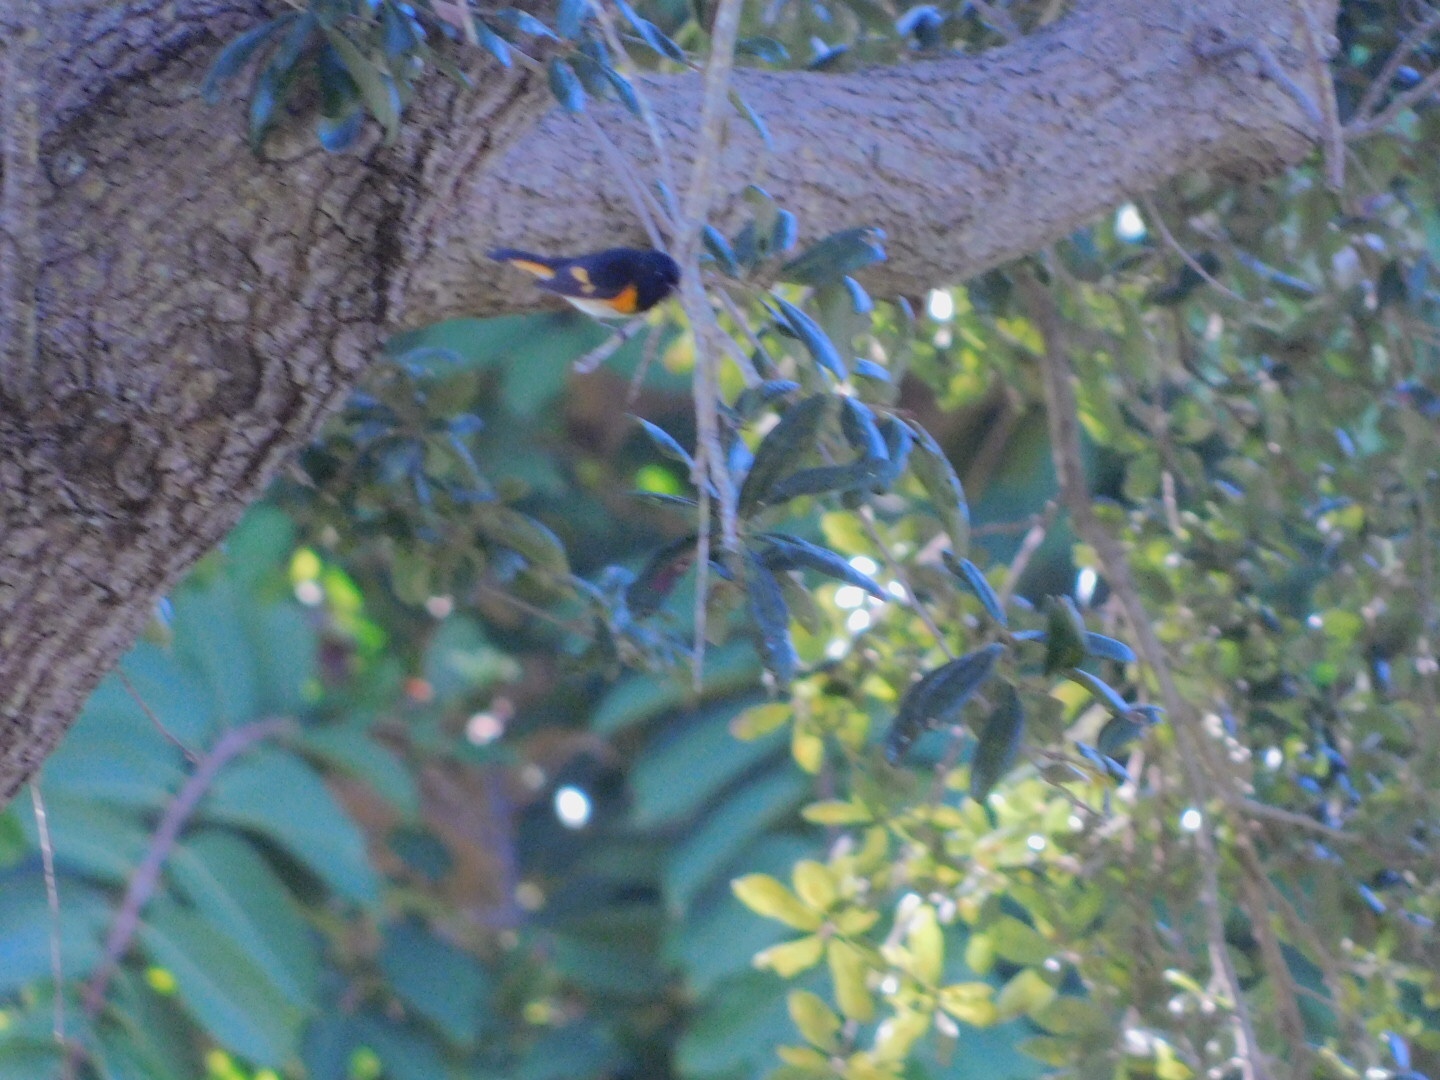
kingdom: Animalia
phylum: Chordata
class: Aves
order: Passeriformes
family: Parulidae
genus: Setophaga
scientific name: Setophaga ruticilla
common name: American redstart
